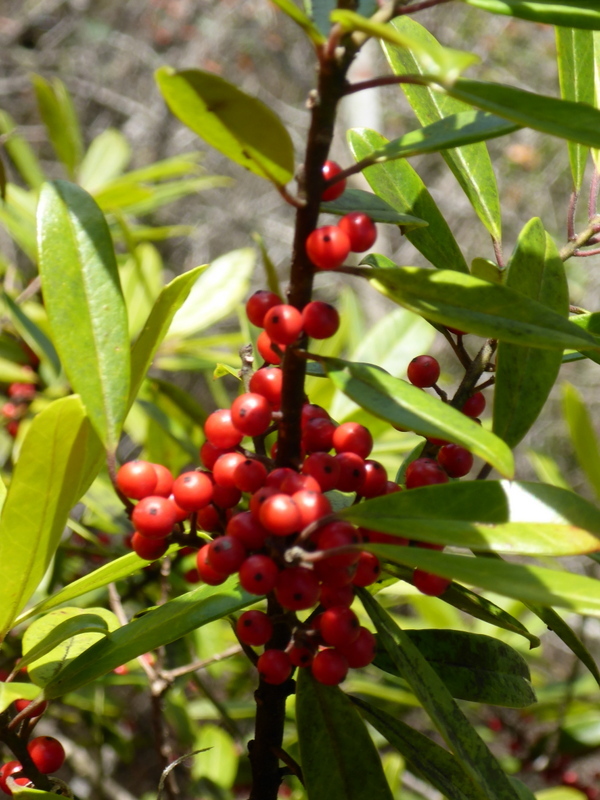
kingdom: Plantae
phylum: Tracheophyta
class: Magnoliopsida
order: Aquifoliales
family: Aquifoliaceae
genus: Ilex
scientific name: Ilex cassine
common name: Dahoon
